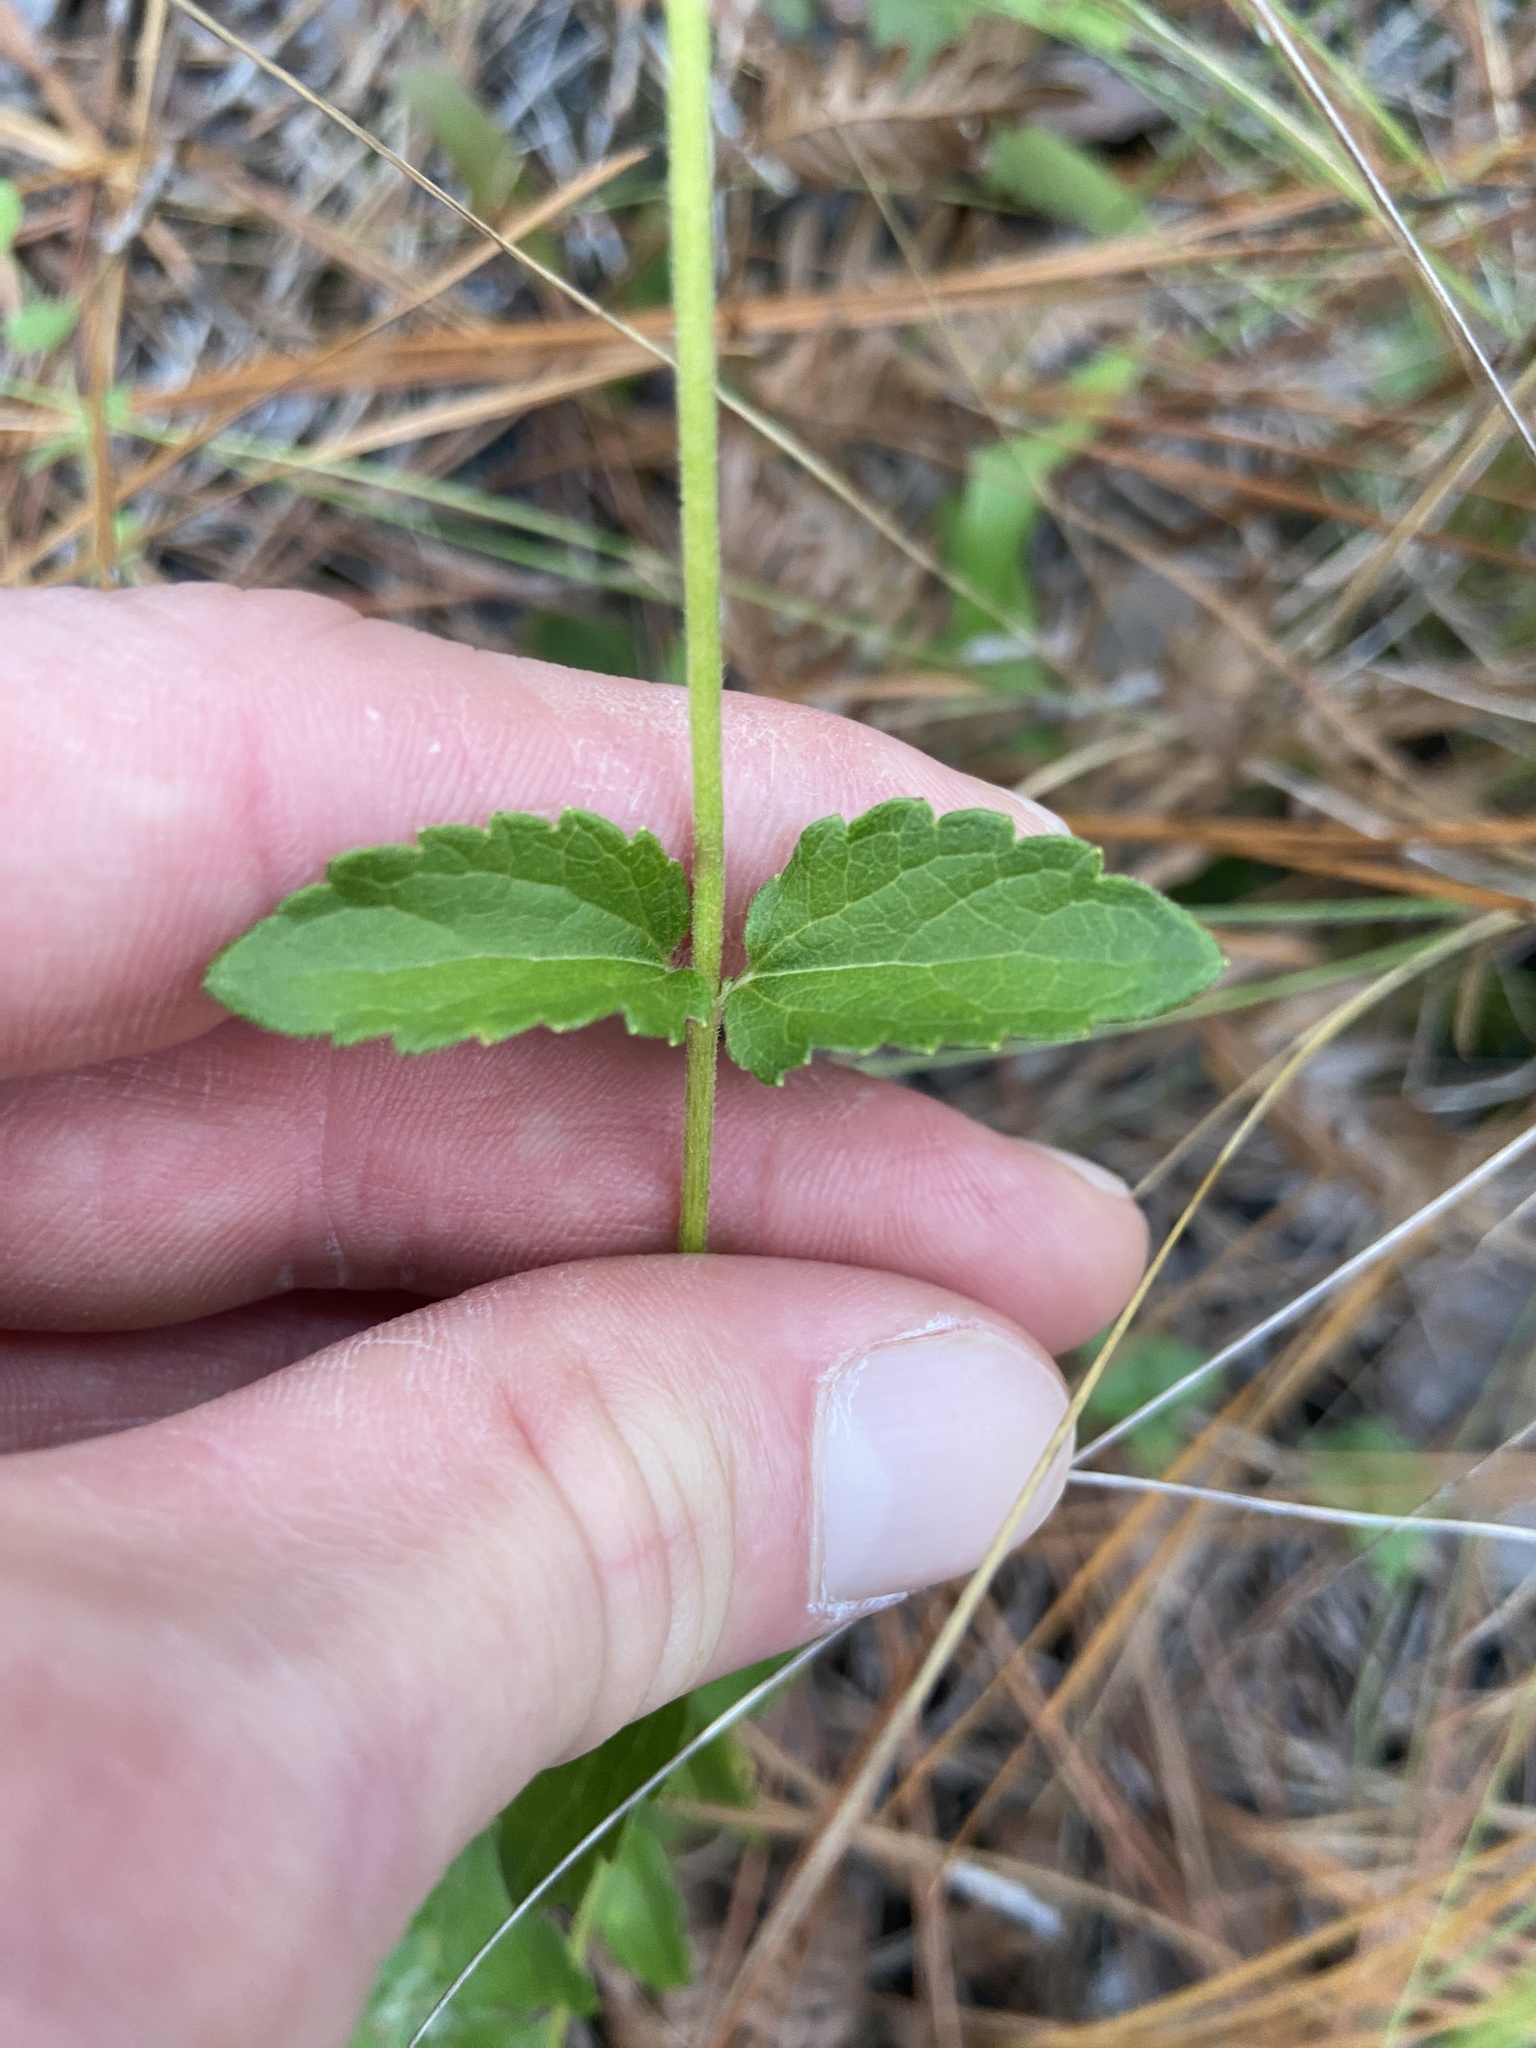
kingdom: Plantae
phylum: Tracheophyta
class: Magnoliopsida
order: Asterales
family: Asteraceae
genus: Ageratina
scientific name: Ageratina aromatica
